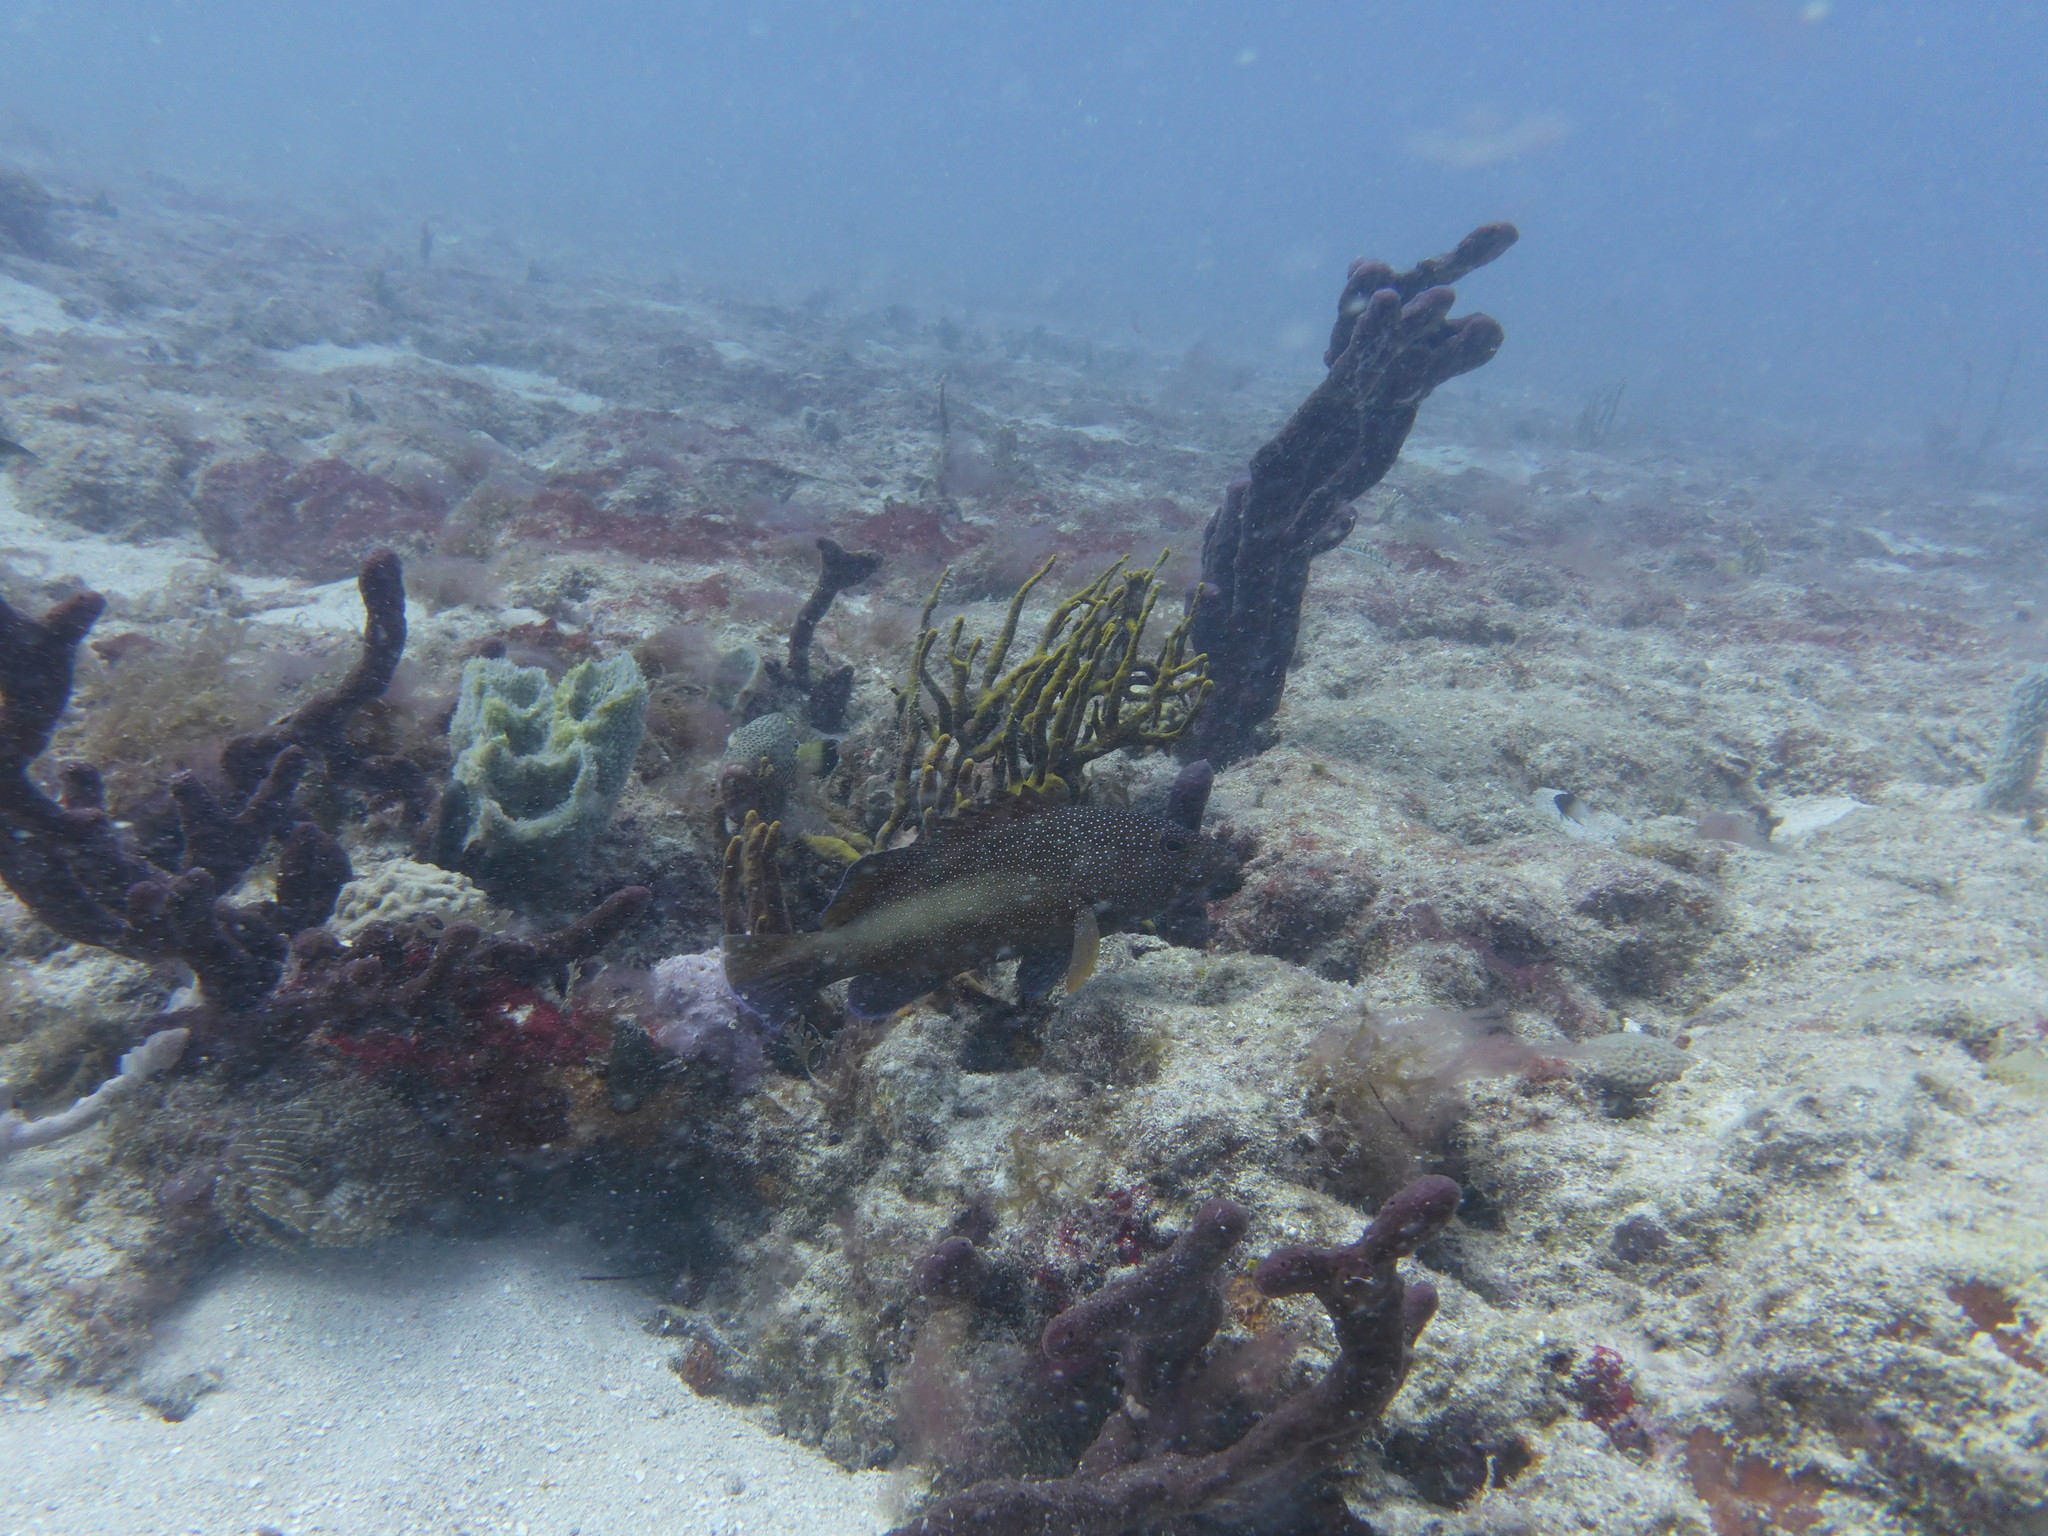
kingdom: Animalia
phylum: Chordata
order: Perciformes
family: Serranidae
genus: Cephalopholis
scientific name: Cephalopholis fulva
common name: Butterfish
